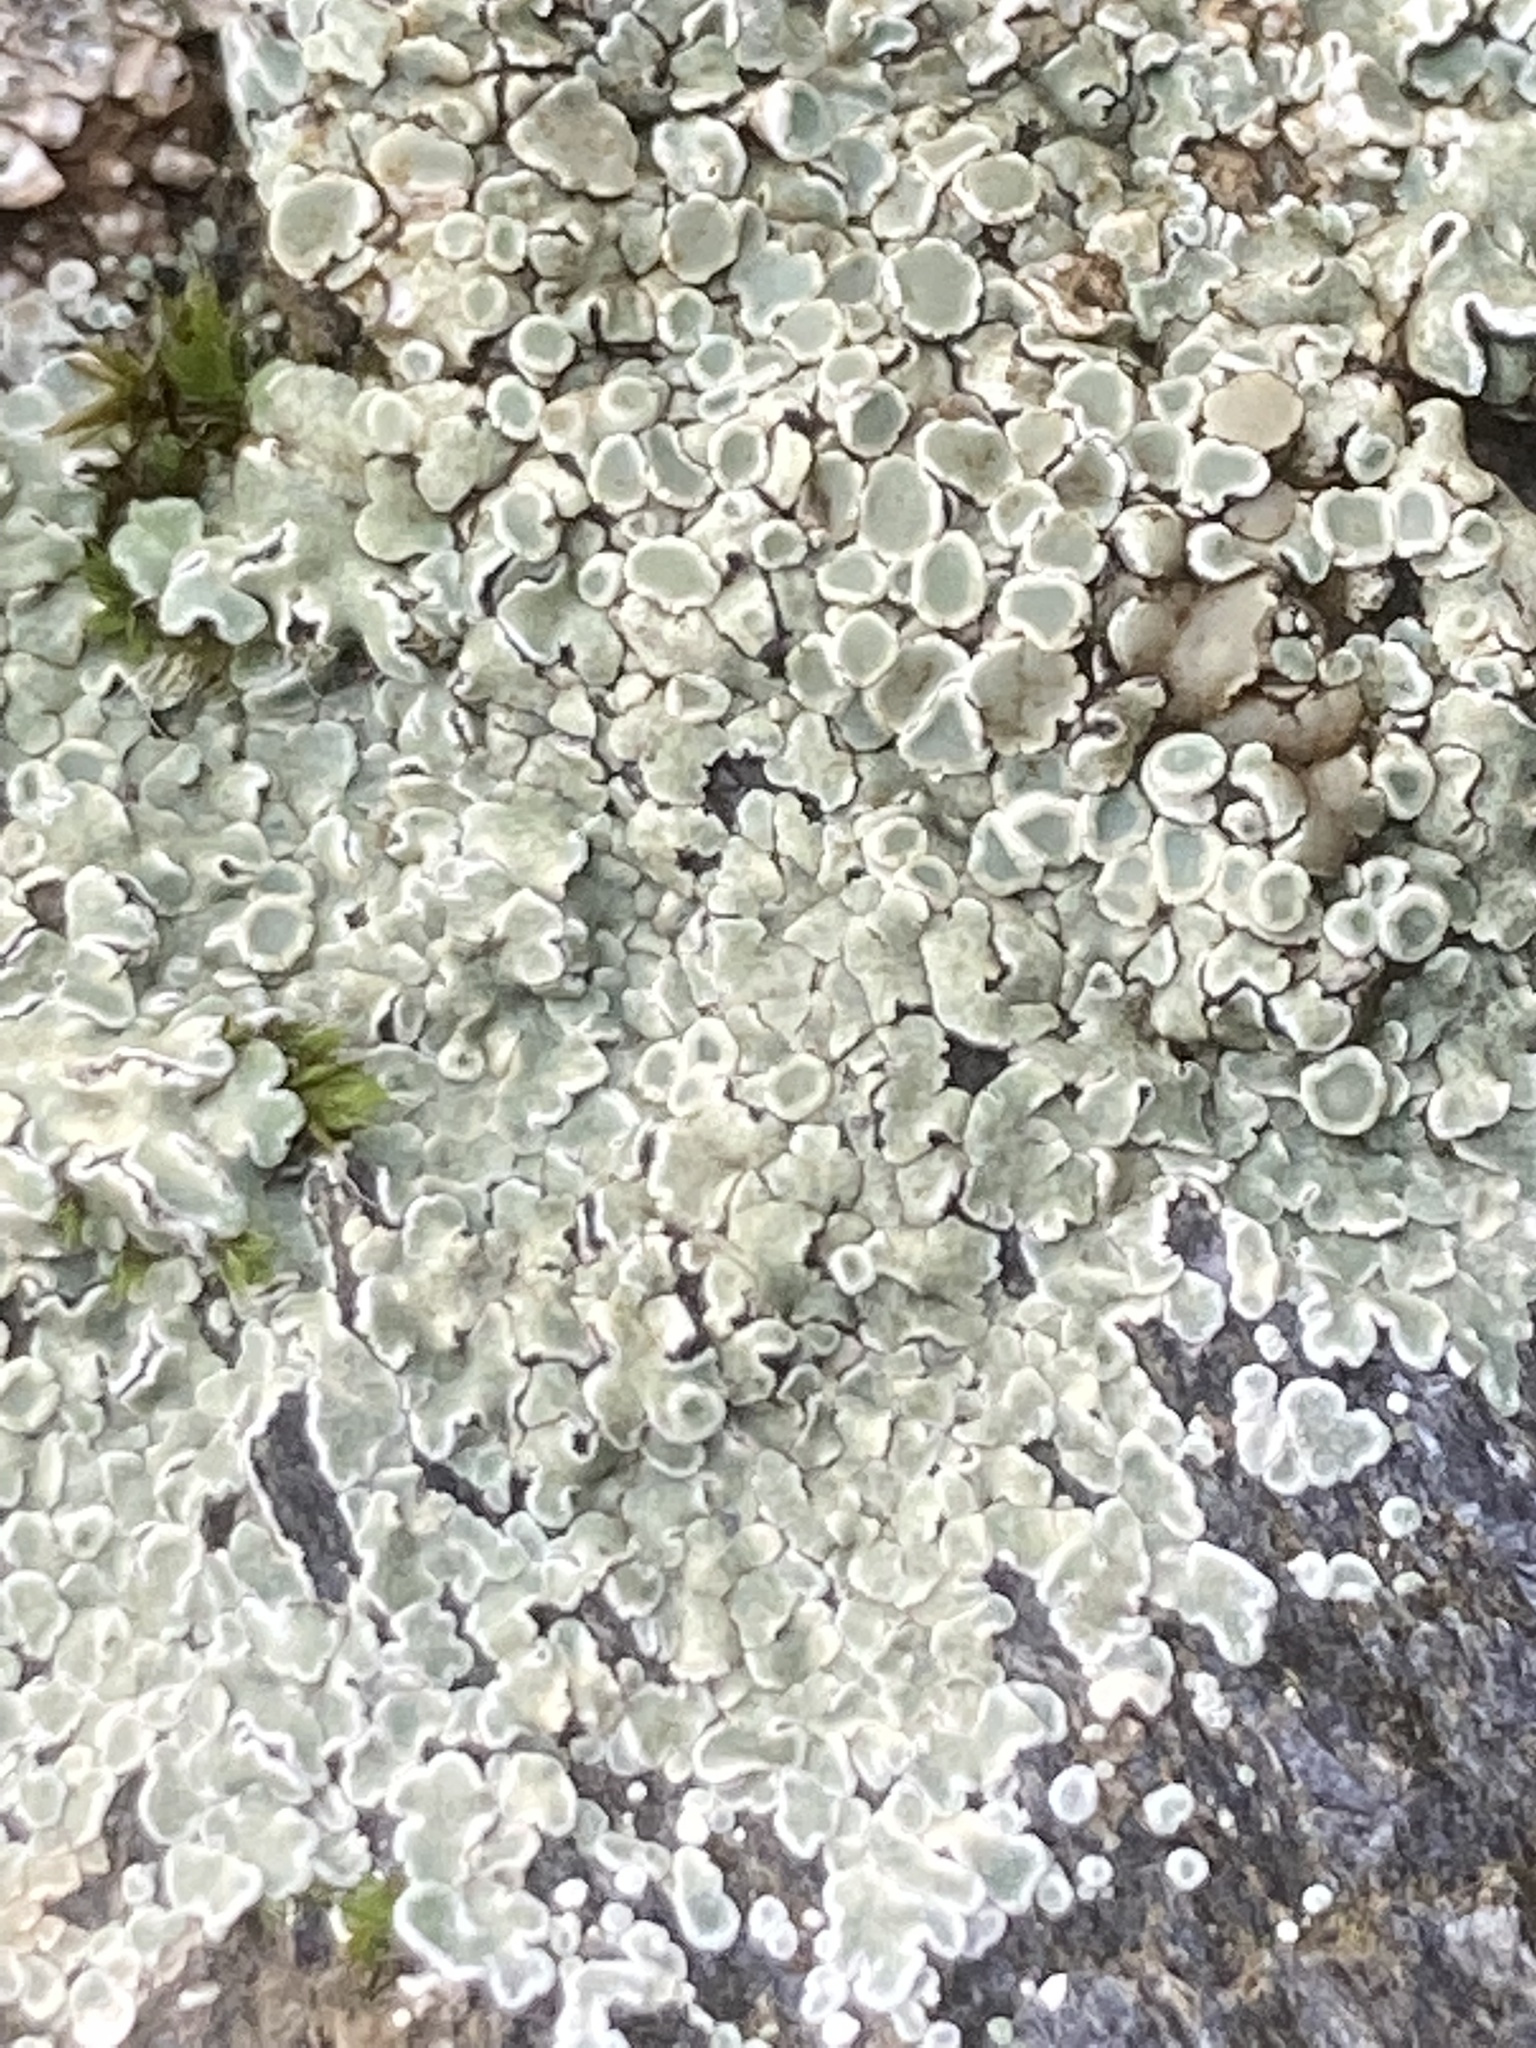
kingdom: Fungi
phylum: Ascomycota
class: Lecanoromycetes
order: Lecanorales
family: Lecanoraceae
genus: Protoparmeliopsis
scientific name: Protoparmeliopsis muralis
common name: Stonewall rim lichen
